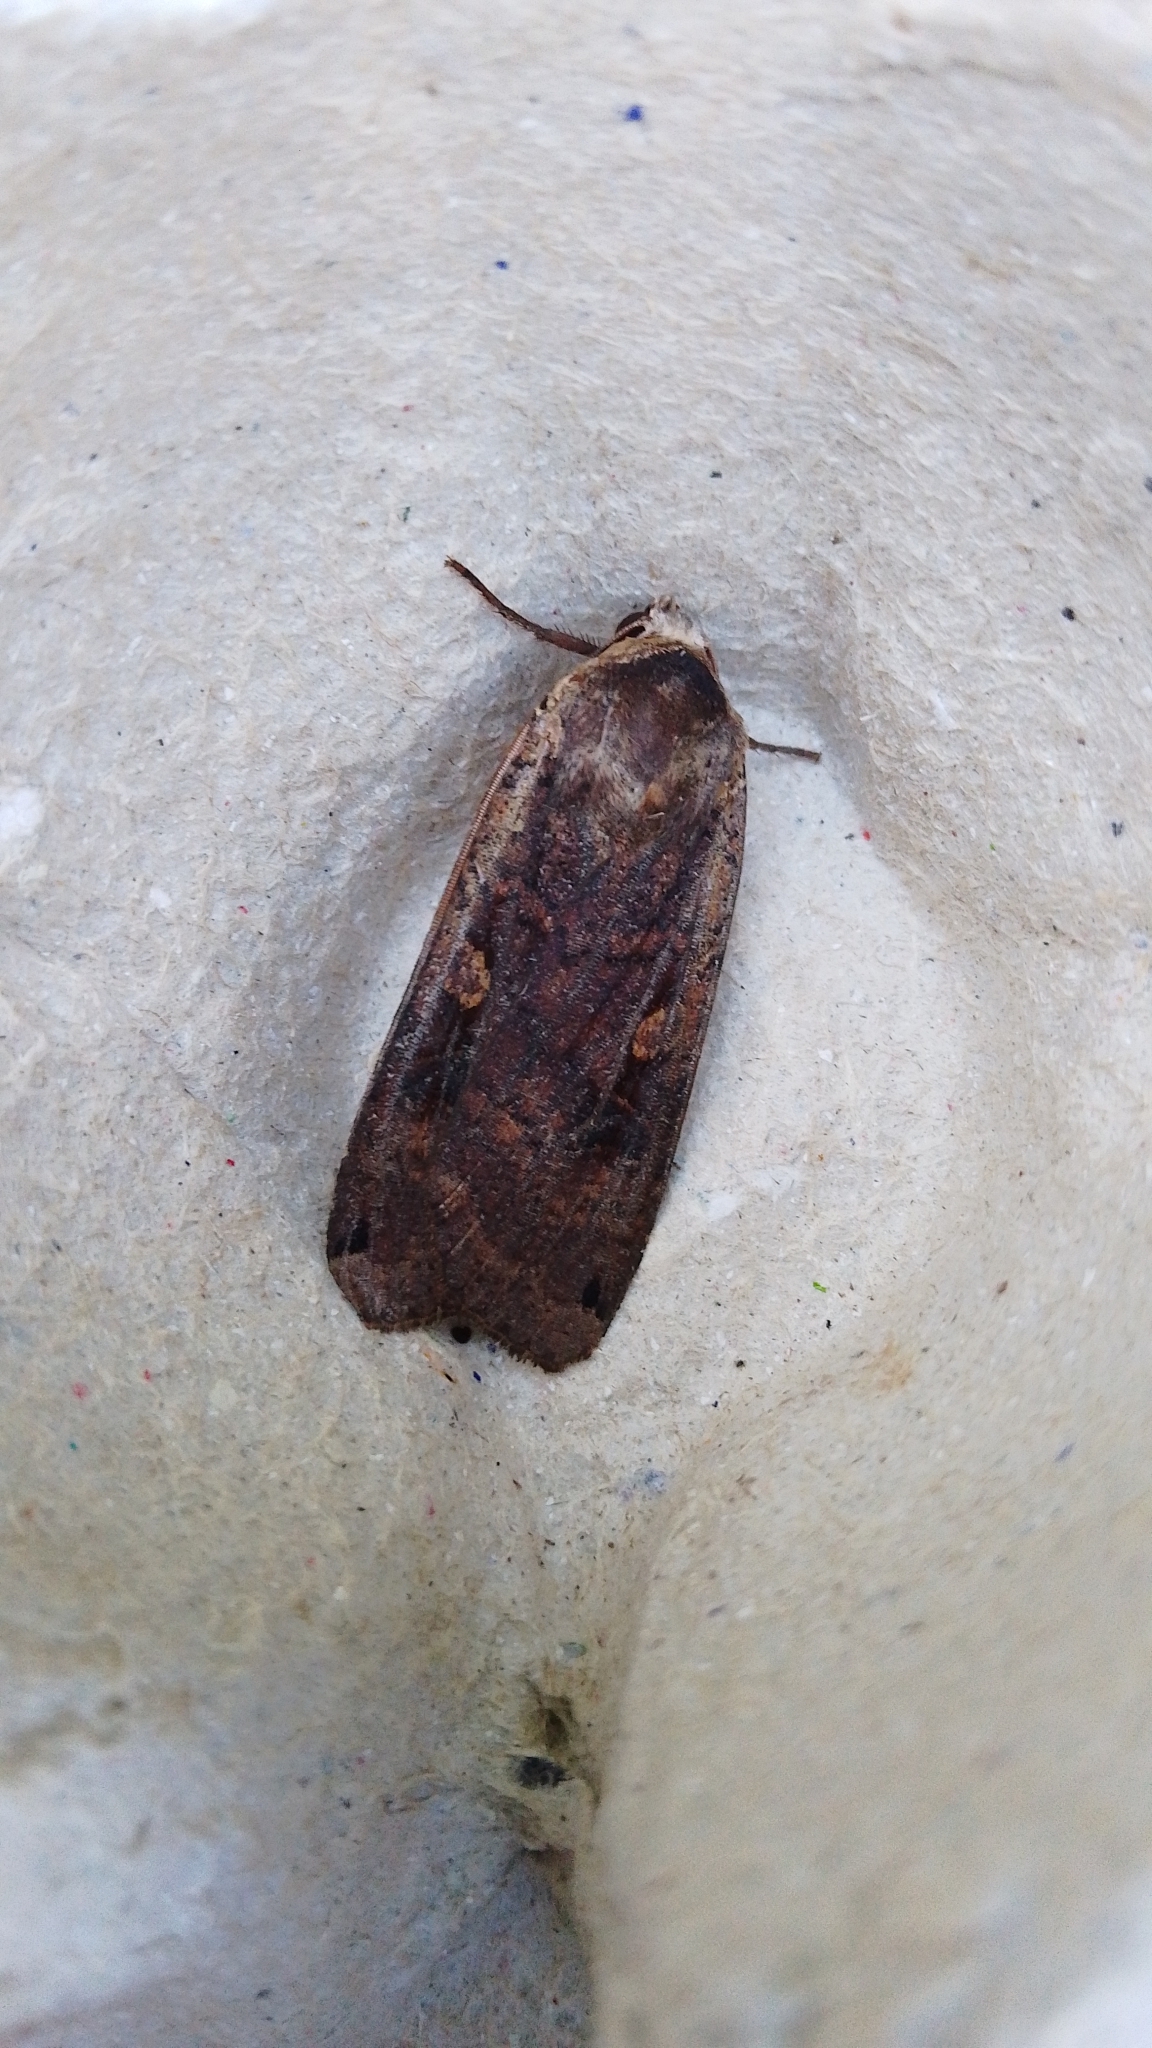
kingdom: Animalia
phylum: Arthropoda
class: Insecta
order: Lepidoptera
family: Noctuidae
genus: Noctua
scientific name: Noctua pronuba
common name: Large yellow underwing
